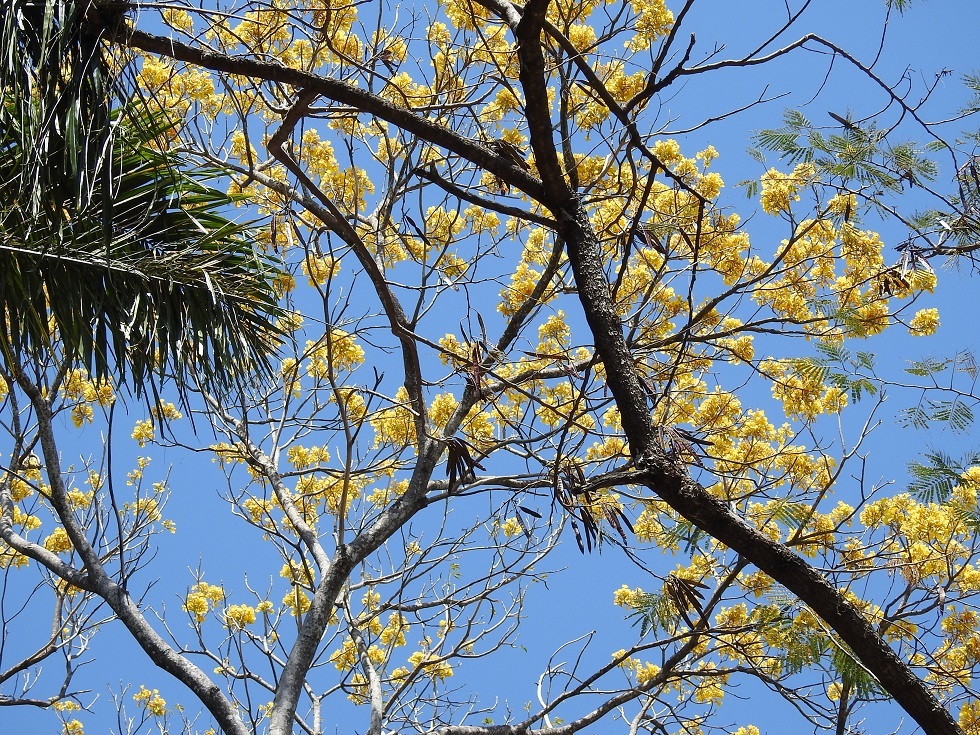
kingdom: Plantae
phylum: Tracheophyta
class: Magnoliopsida
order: Lamiales
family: Bignoniaceae
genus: Handroanthus
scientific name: Handroanthus chrysanthus
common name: Trumpet trees
